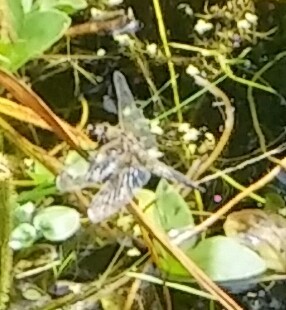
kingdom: Animalia
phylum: Arthropoda
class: Insecta
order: Odonata
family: Libellulidae
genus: Libellula
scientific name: Libellula quadrimaculata
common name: Four-spotted chaser
